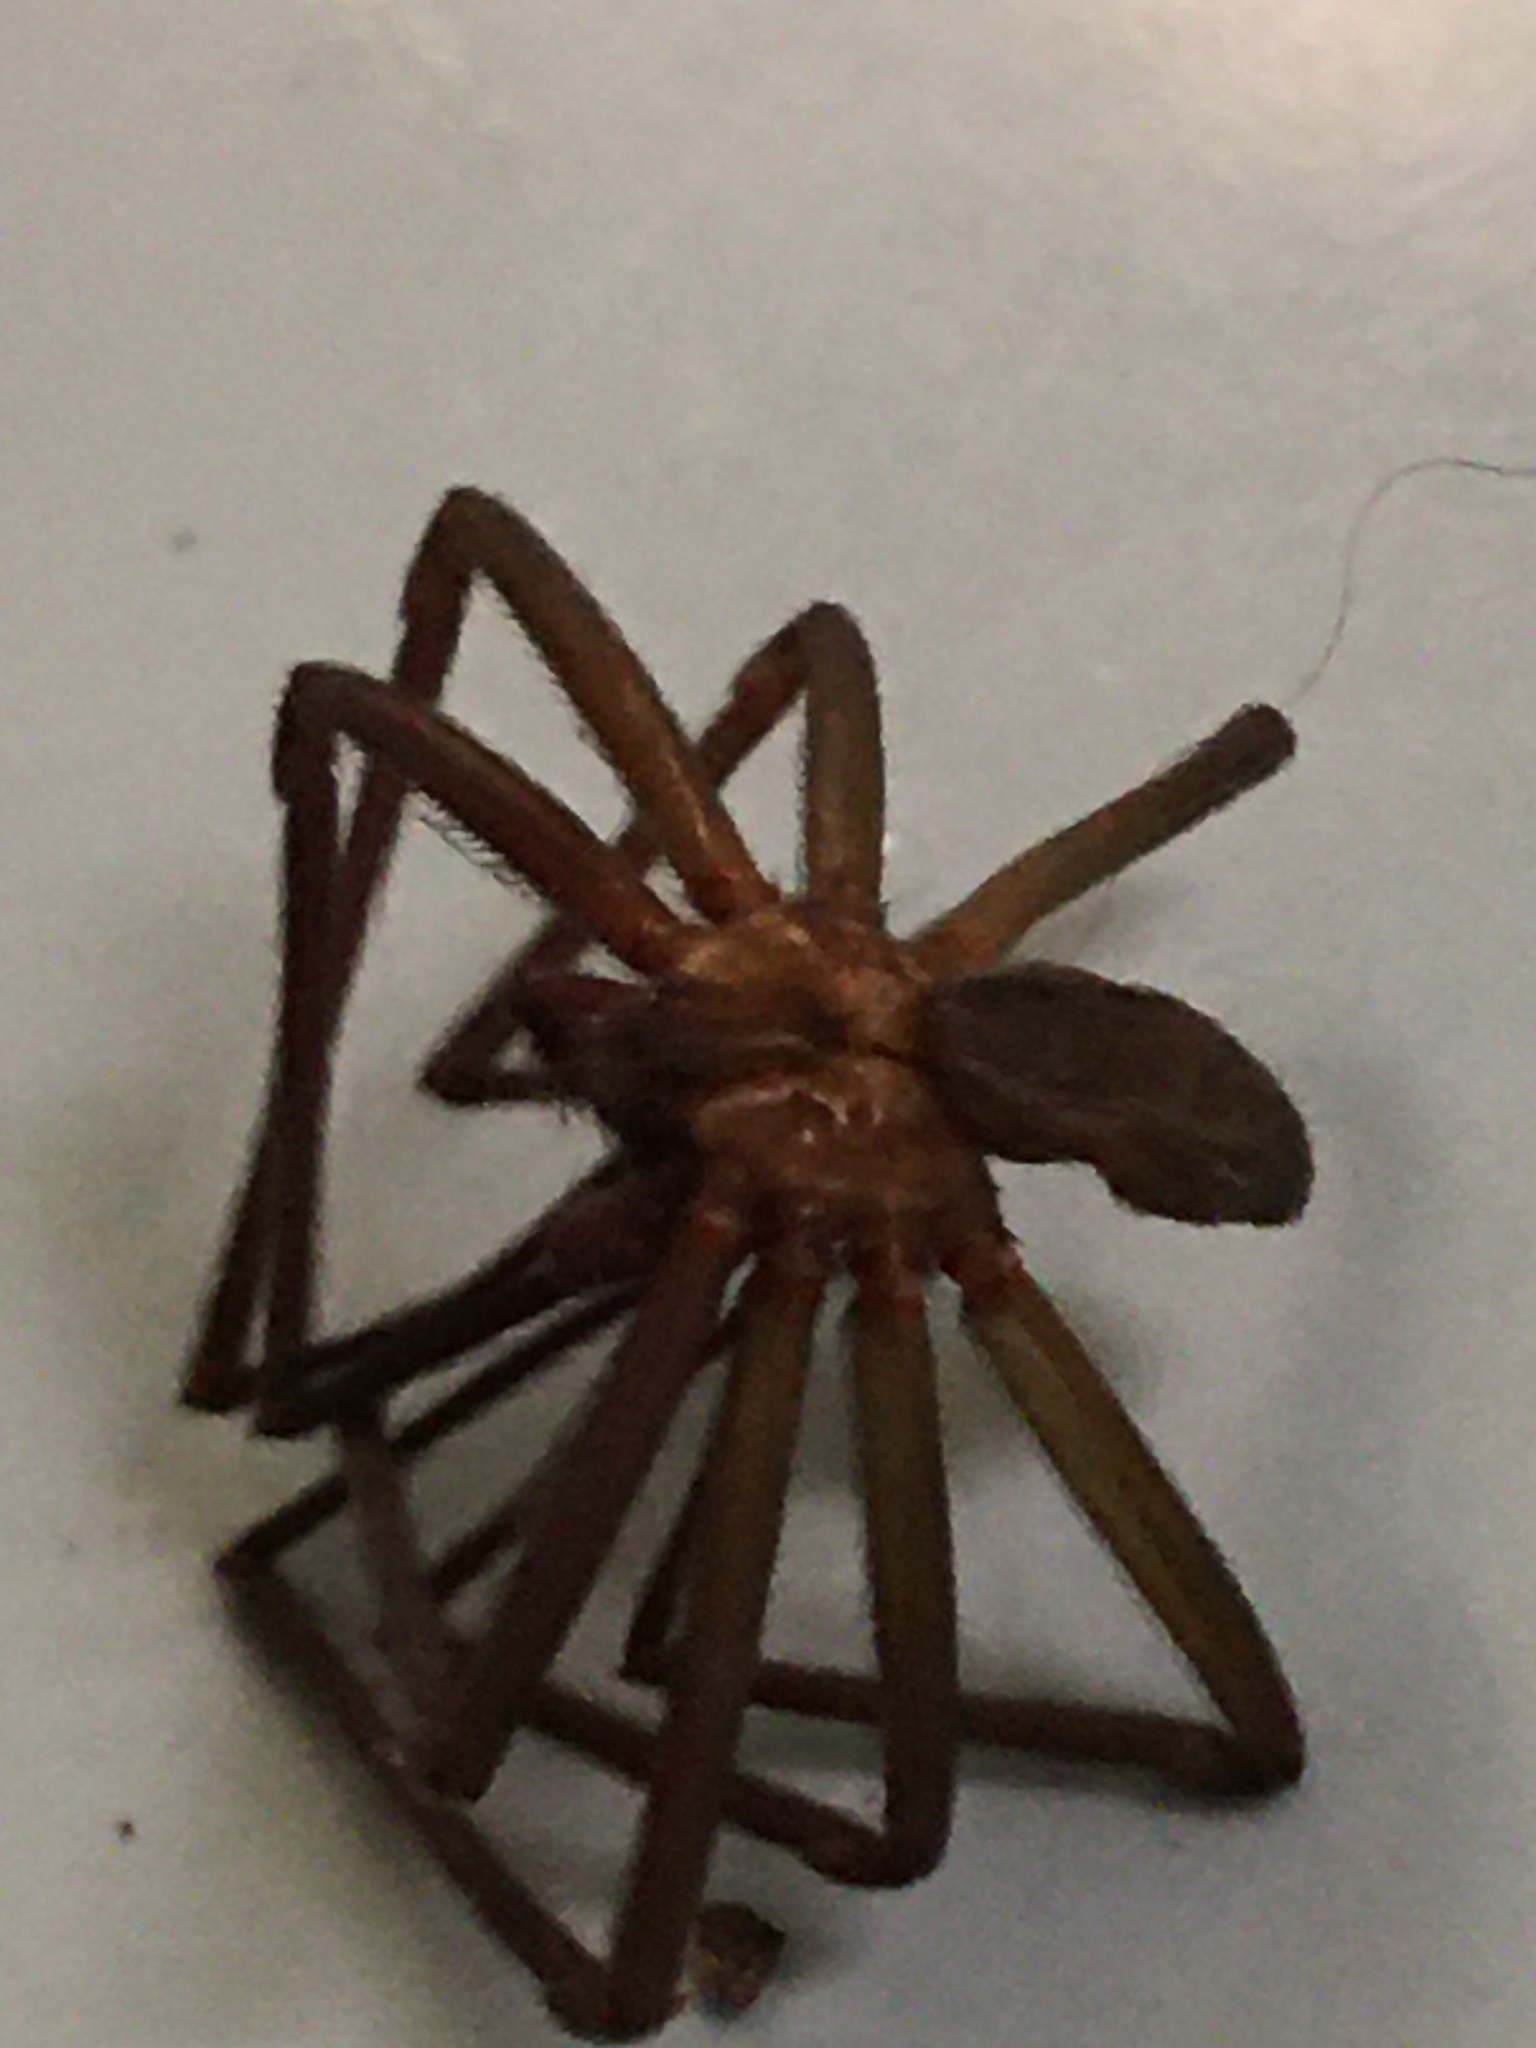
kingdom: Animalia
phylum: Arthropoda
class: Arachnida
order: Araneae
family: Sicariidae
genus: Loxosceles
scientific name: Loxosceles reclusa
